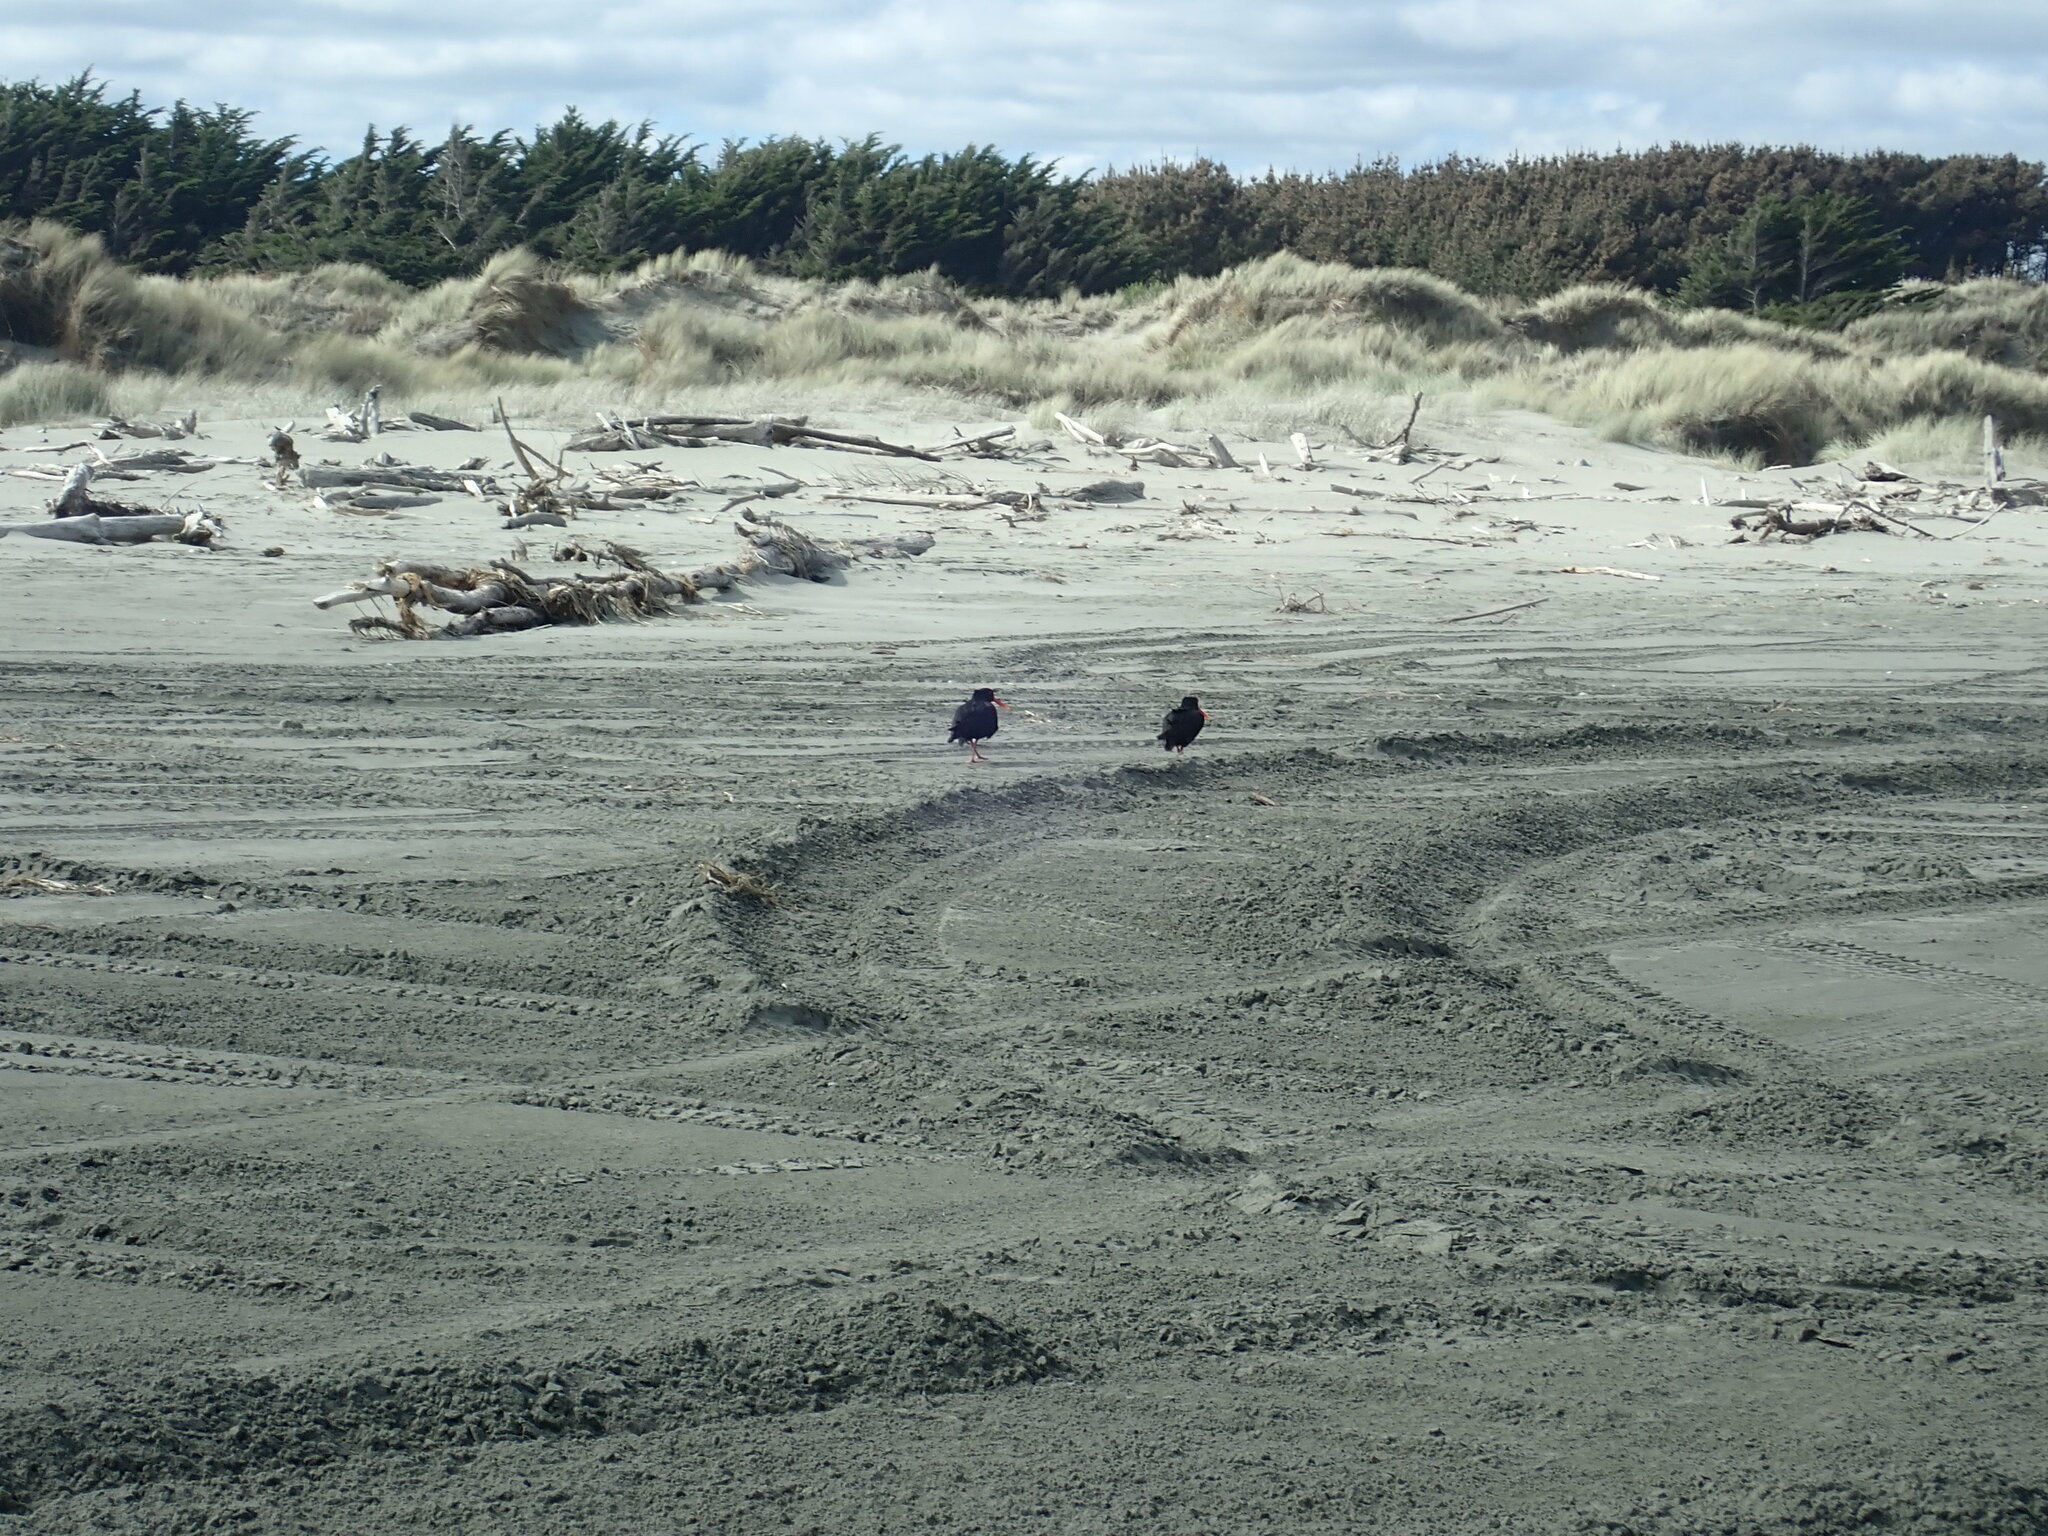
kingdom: Animalia
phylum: Chordata
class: Aves
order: Charadriiformes
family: Haematopodidae
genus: Haematopus
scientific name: Haematopus unicolor
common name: Variable oystercatcher
